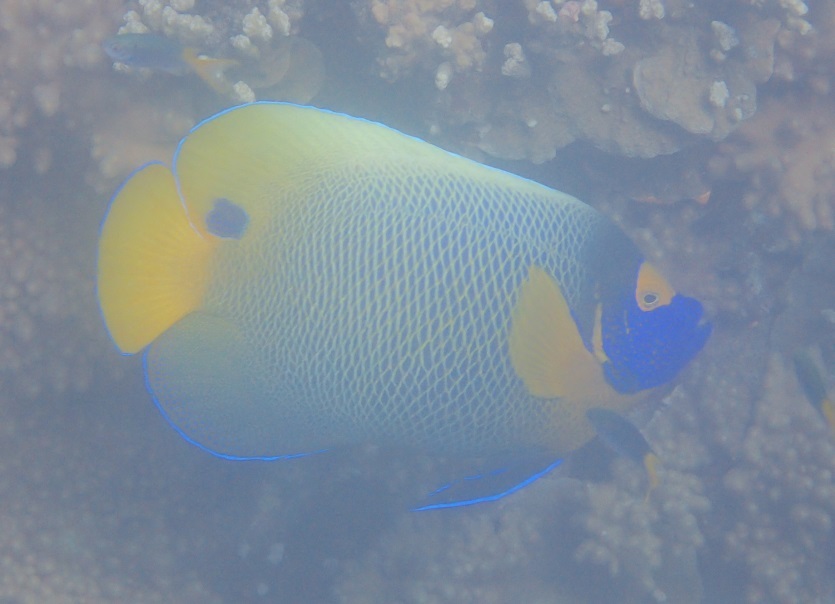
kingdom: Animalia
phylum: Chordata
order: Perciformes
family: Pomacanthidae
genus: Pomacanthus
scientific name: Pomacanthus xanthometopon
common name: Yellow-faced angelfish
